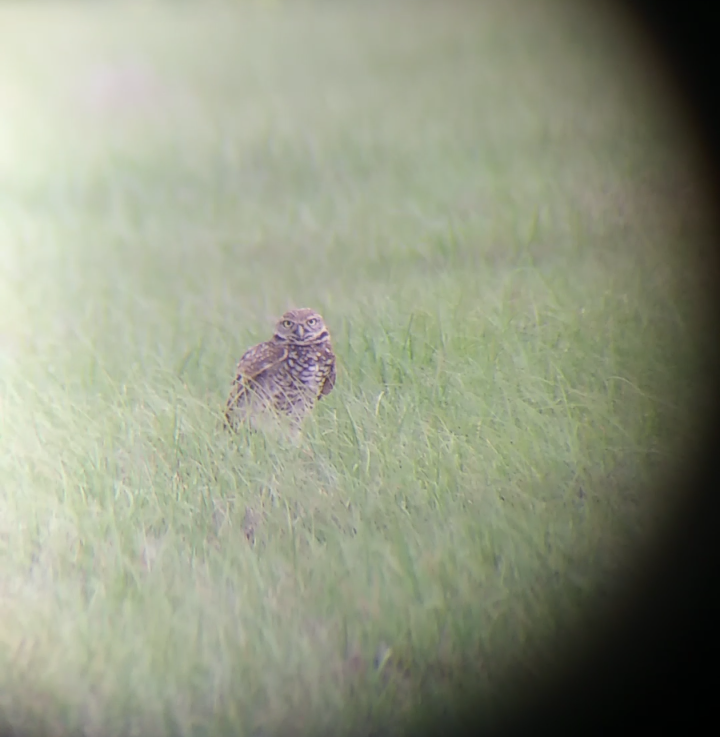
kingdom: Animalia
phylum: Chordata
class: Aves
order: Strigiformes
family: Strigidae
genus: Athene
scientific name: Athene cunicularia
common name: Burrowing owl
